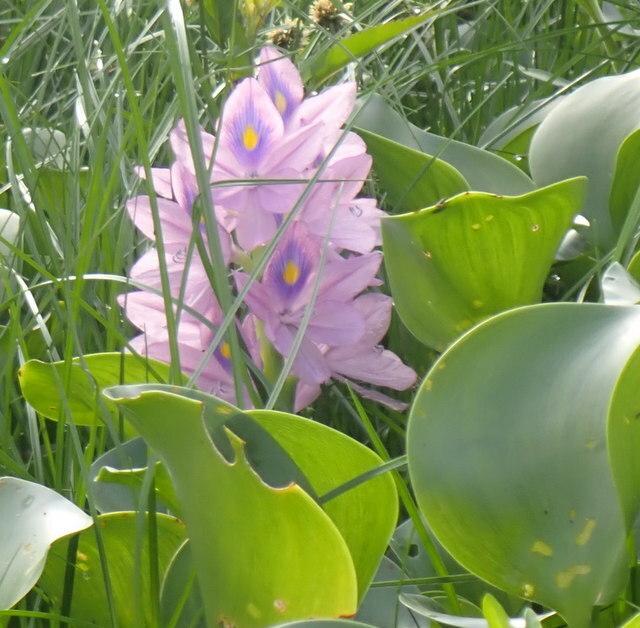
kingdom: Plantae
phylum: Tracheophyta
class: Liliopsida
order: Commelinales
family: Pontederiaceae
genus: Pontederia
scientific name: Pontederia crassipes
